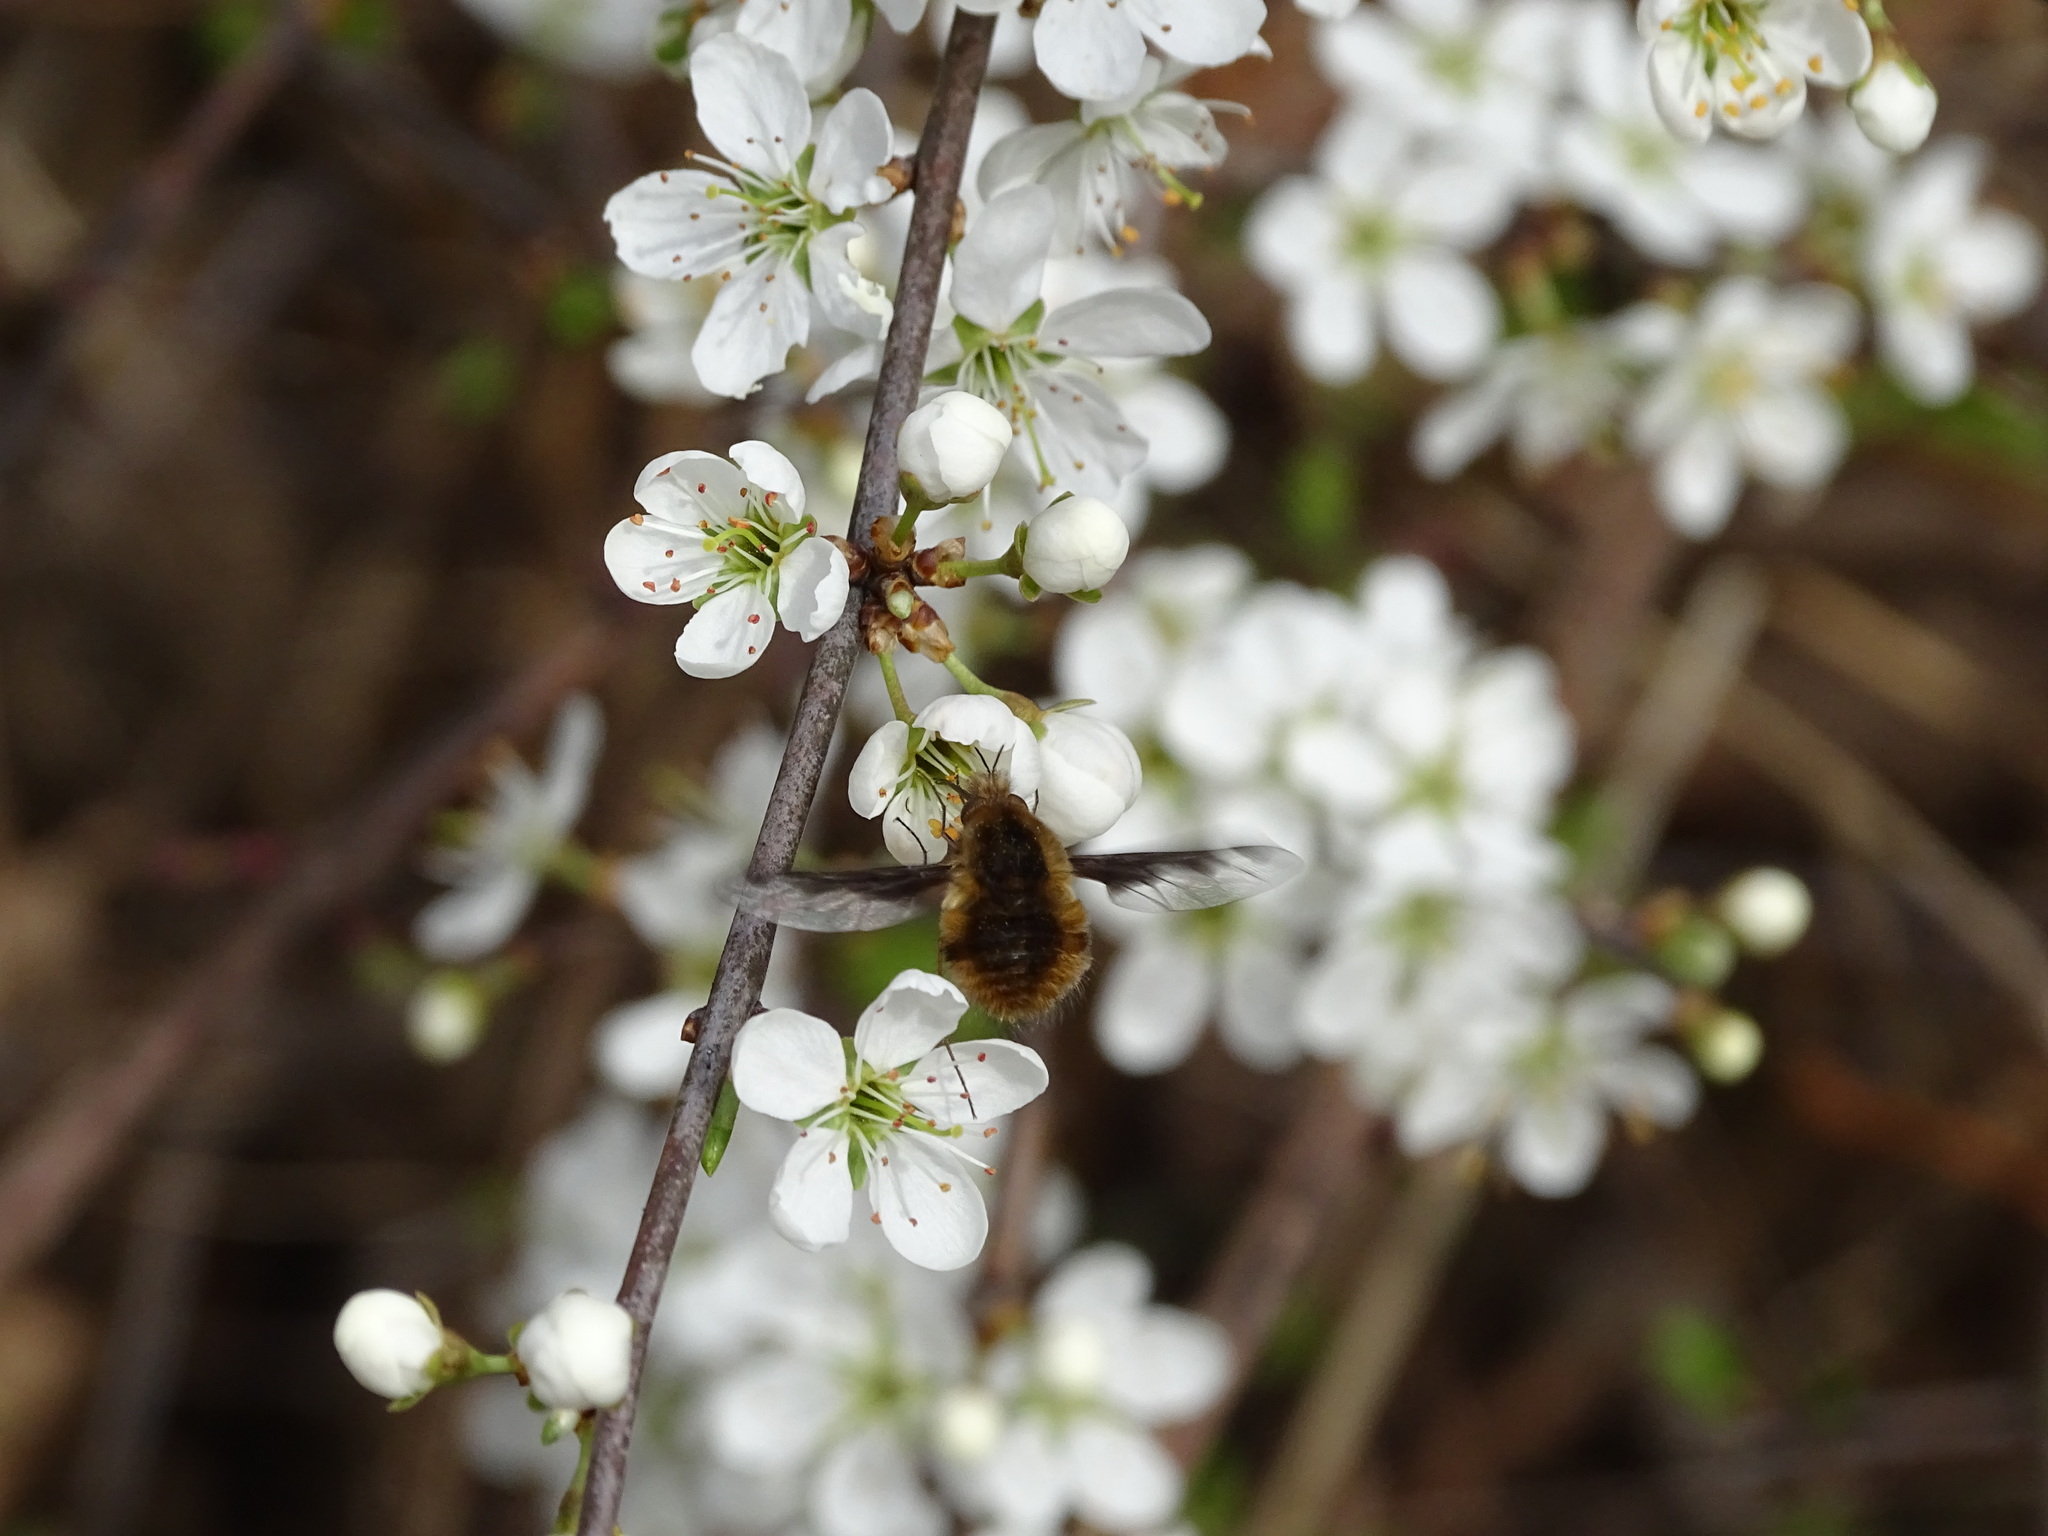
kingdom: Animalia
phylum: Arthropoda
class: Insecta
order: Diptera
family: Bombyliidae
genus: Bombylius
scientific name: Bombylius major
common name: Bee fly
